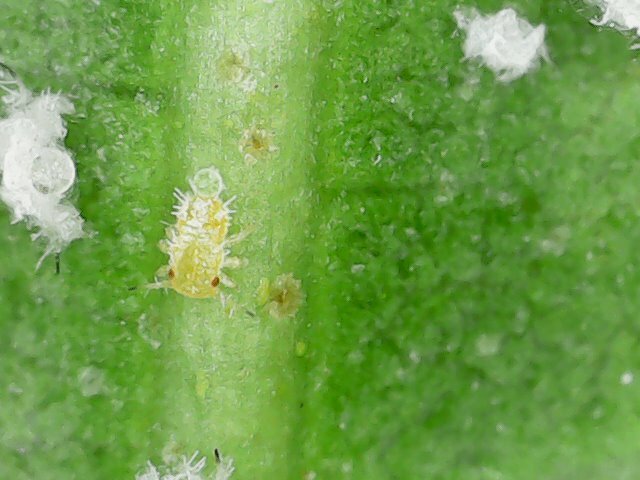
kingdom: Animalia
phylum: Arthropoda
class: Insecta
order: Hemiptera
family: Aphalaridae
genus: Aphalara
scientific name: Aphalara itadori
